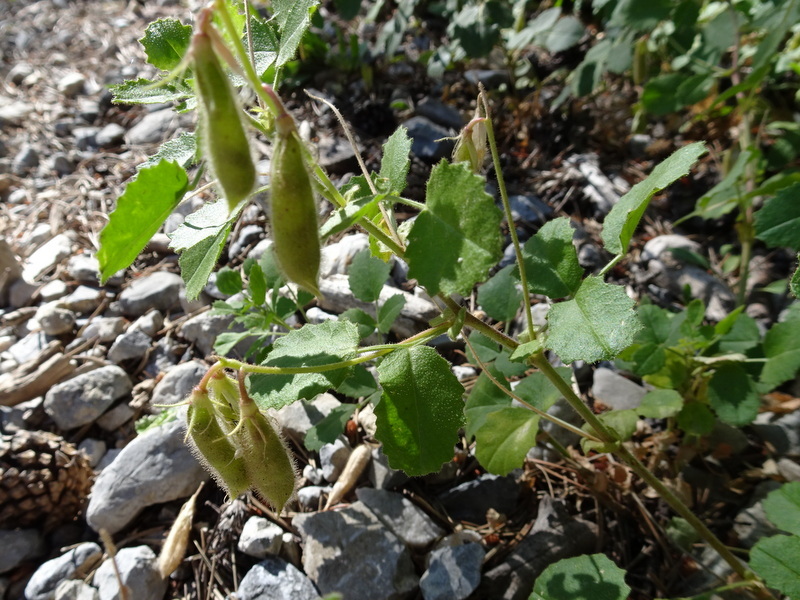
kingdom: Plantae
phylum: Tracheophyta
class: Magnoliopsida
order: Fabales
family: Fabaceae
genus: Ononis
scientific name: Ononis rotundifolia
